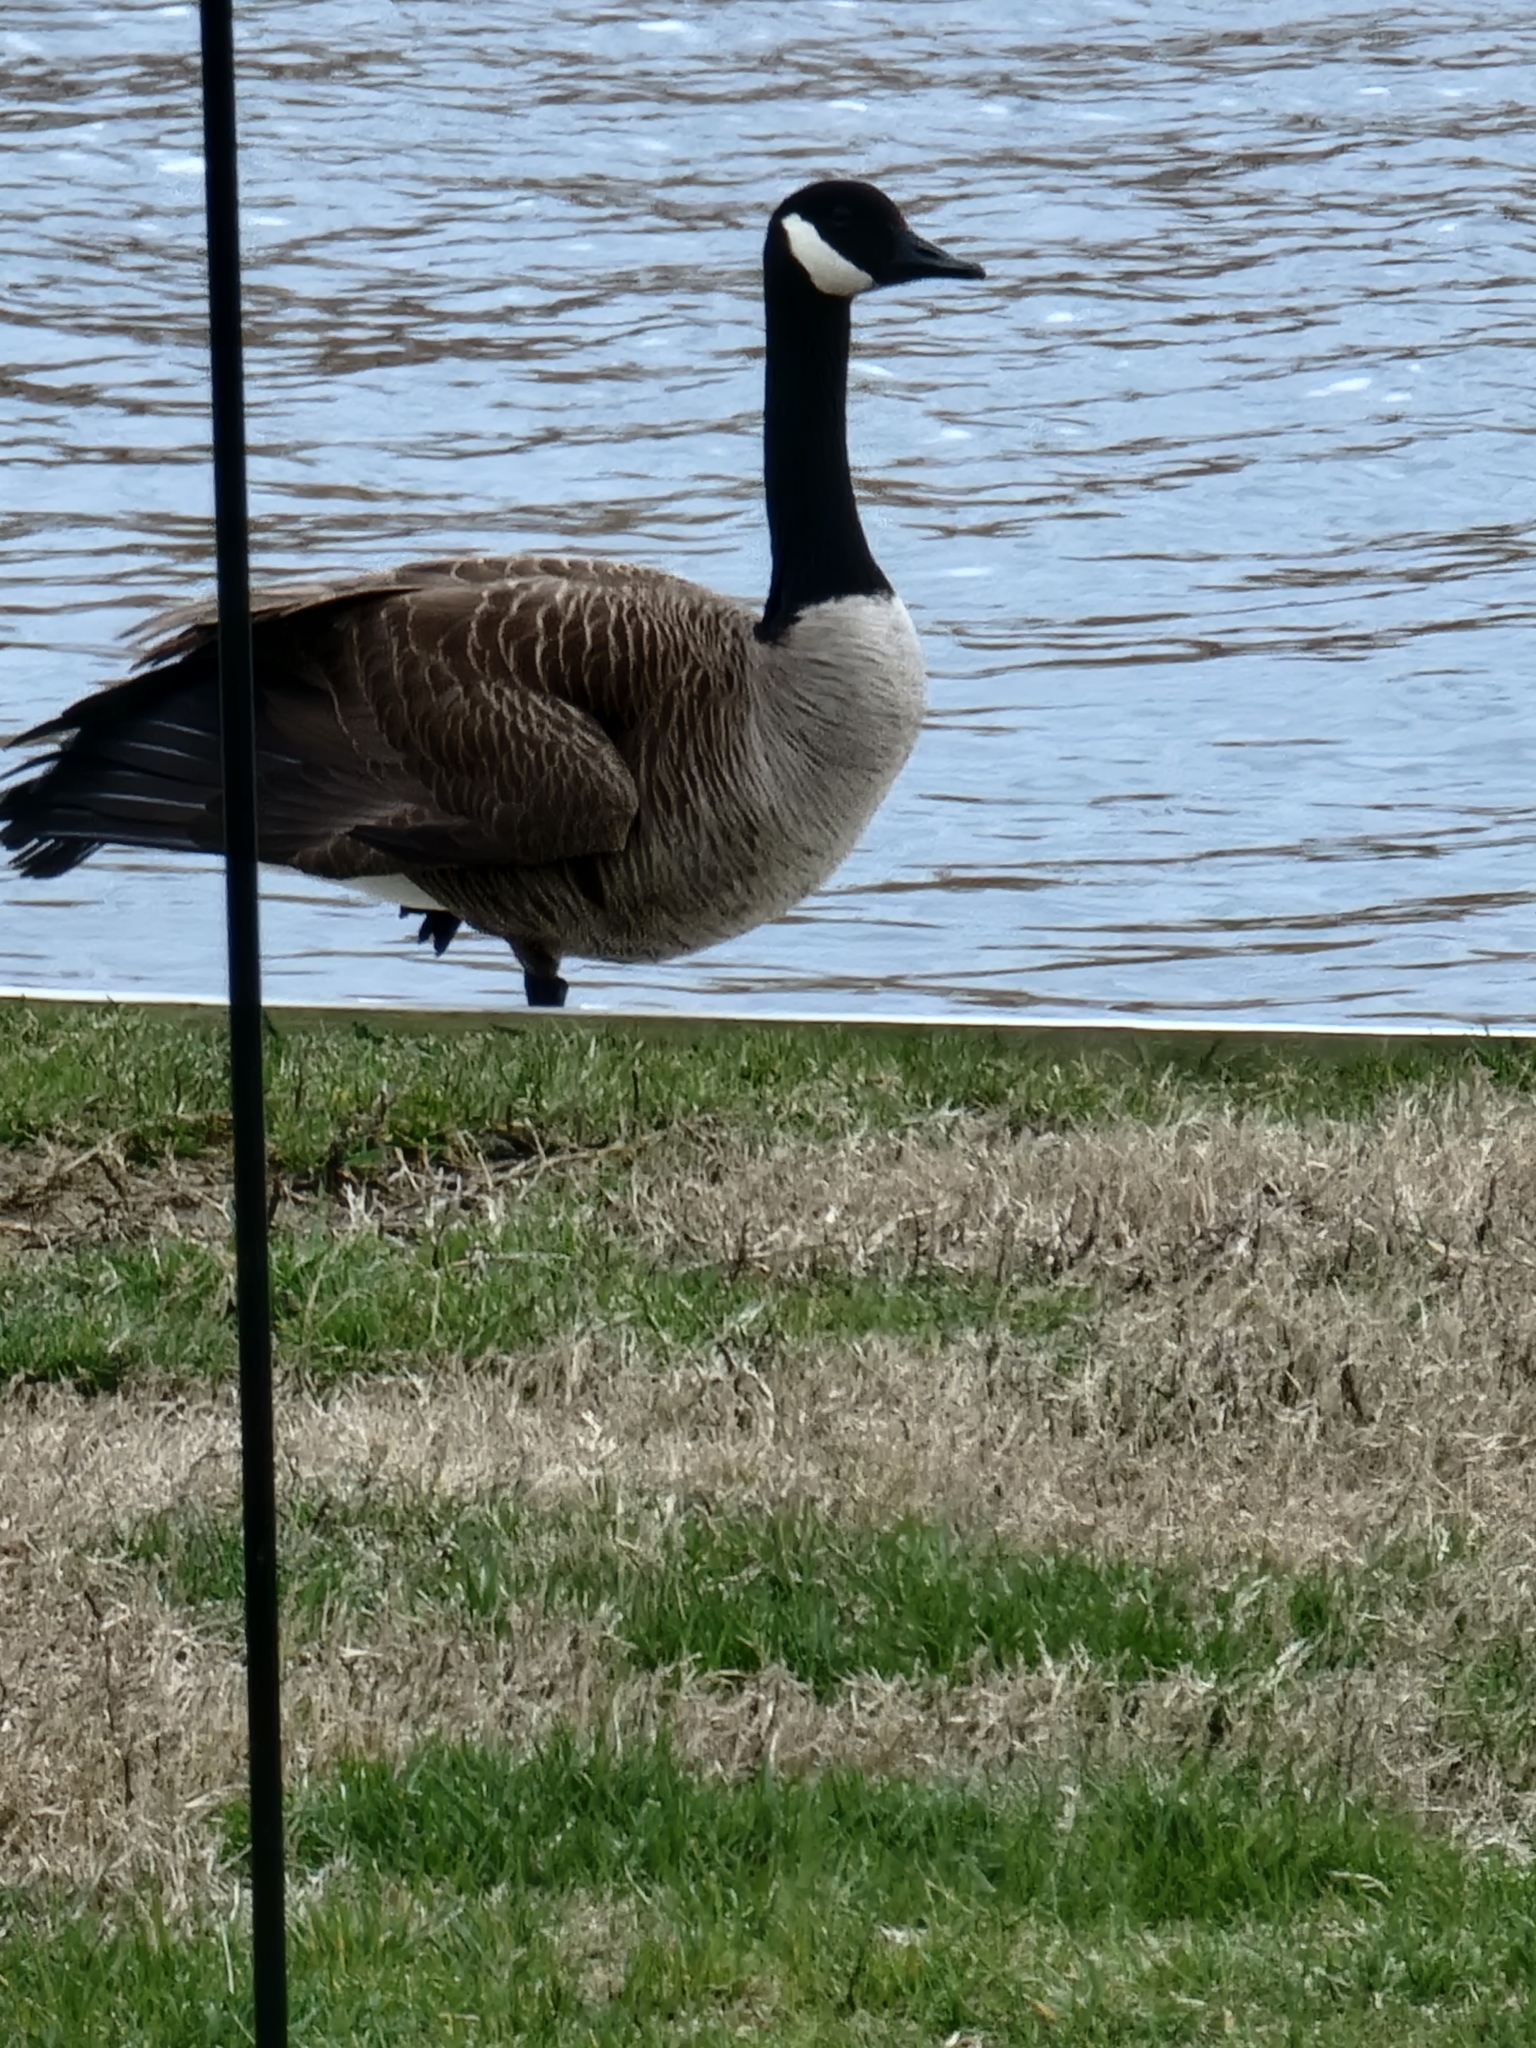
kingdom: Animalia
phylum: Chordata
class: Aves
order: Anseriformes
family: Anatidae
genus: Branta
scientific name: Branta canadensis
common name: Canada goose
